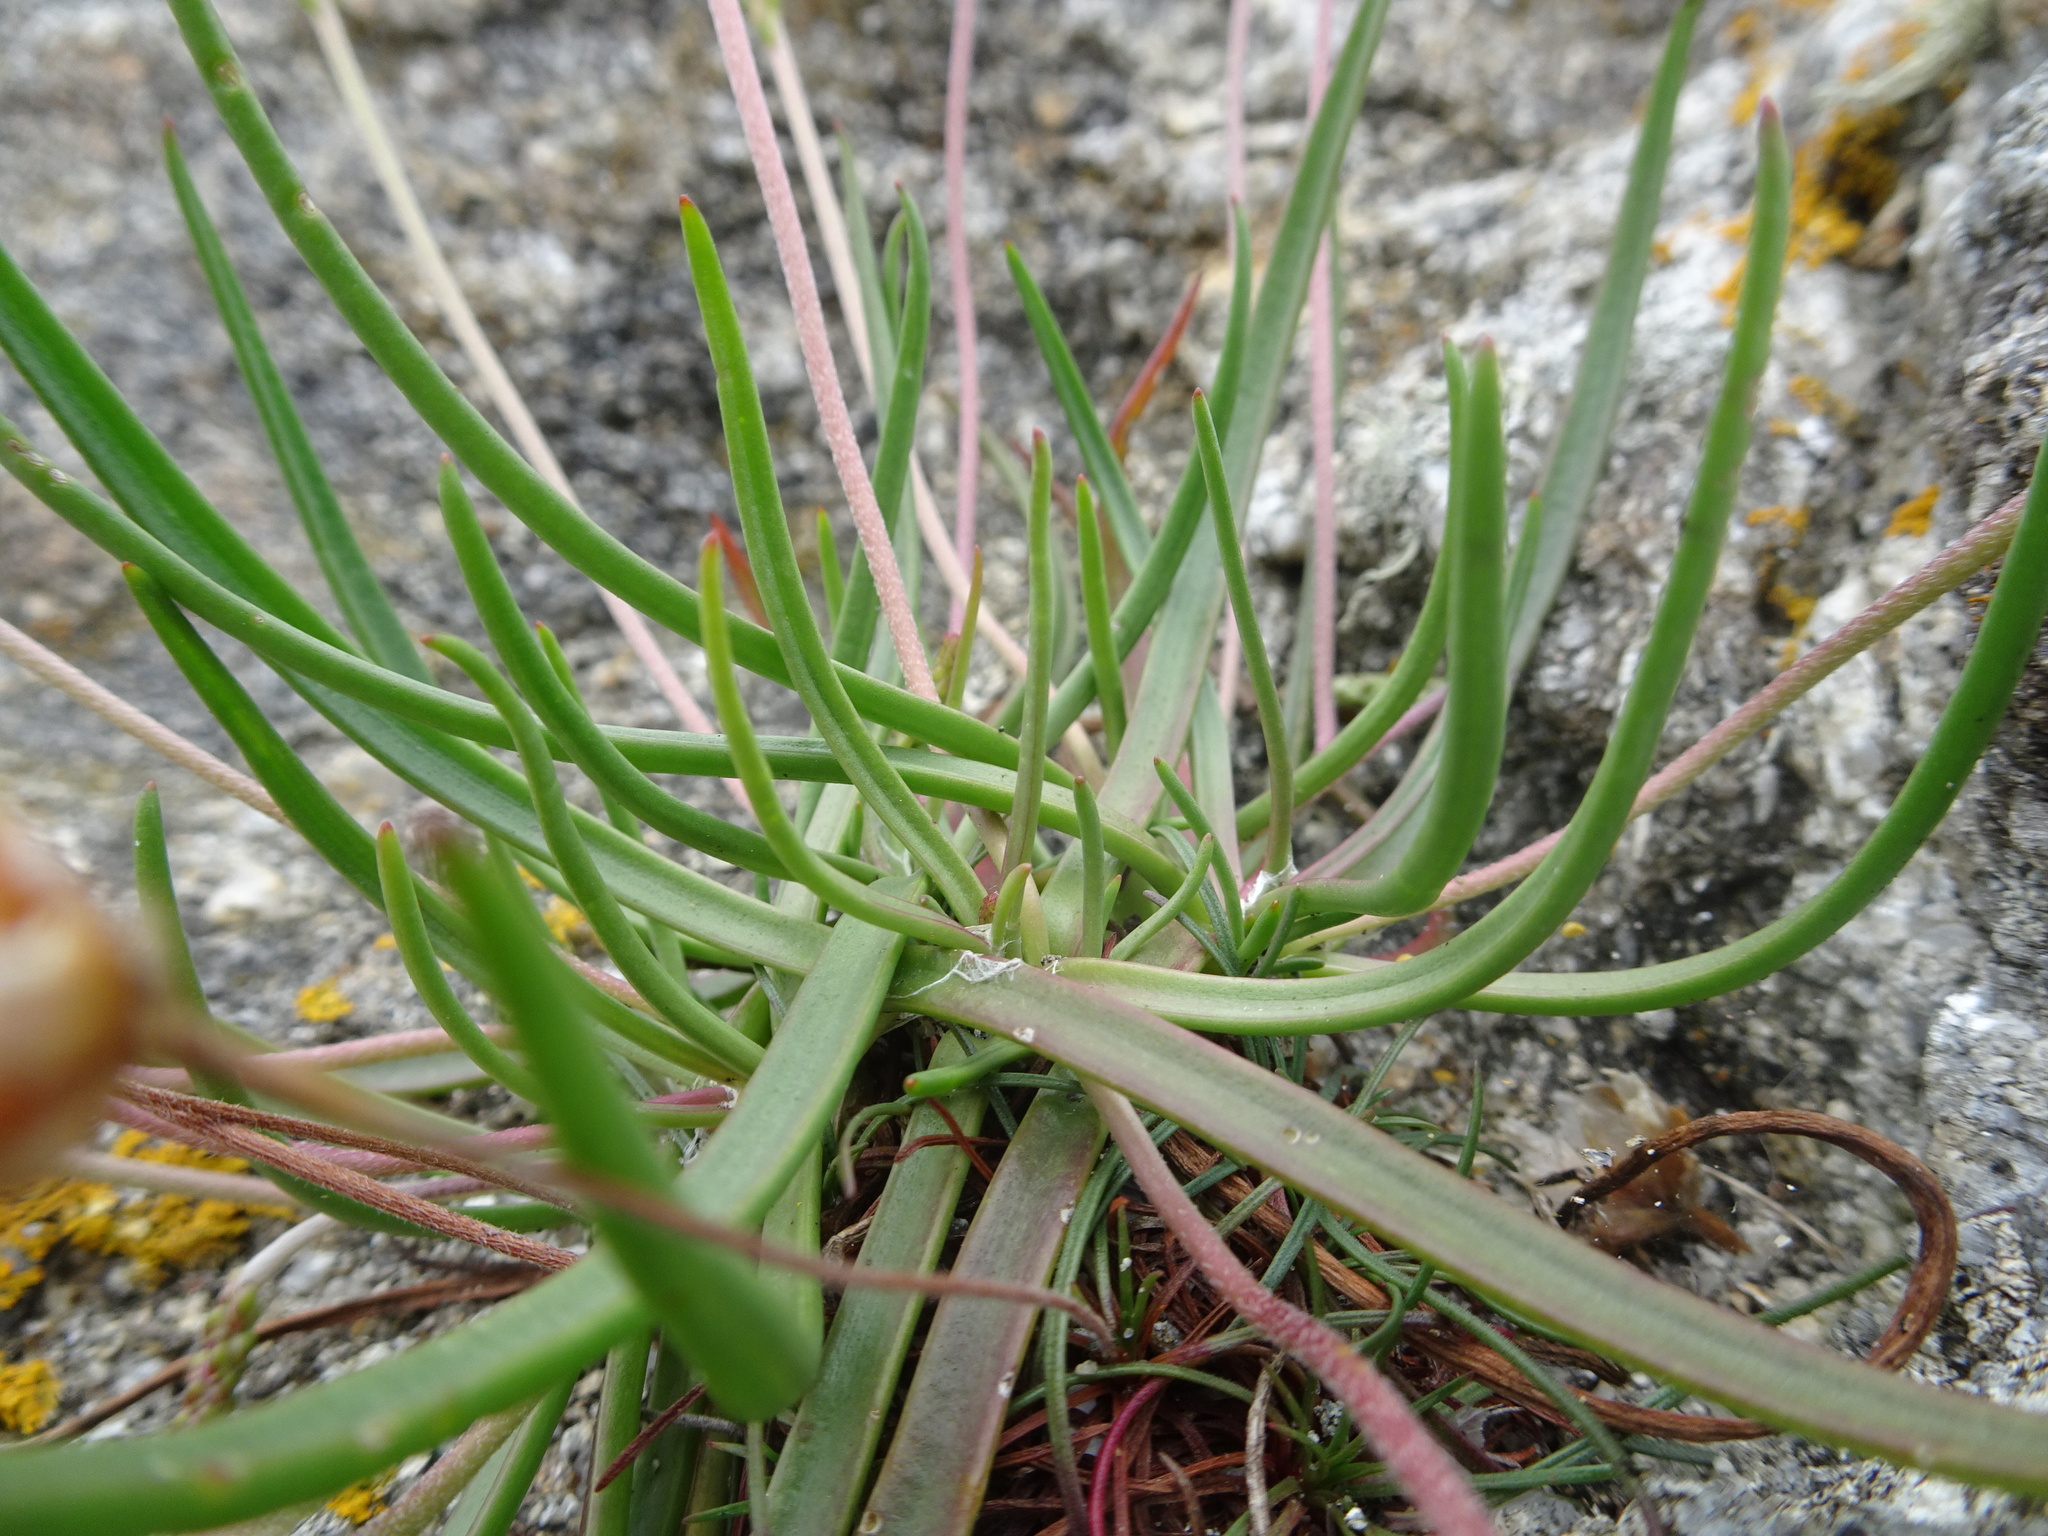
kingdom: Plantae
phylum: Tracheophyta
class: Magnoliopsida
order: Lamiales
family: Plantaginaceae
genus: Plantago
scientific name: Plantago maritima
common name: Sea plantain
